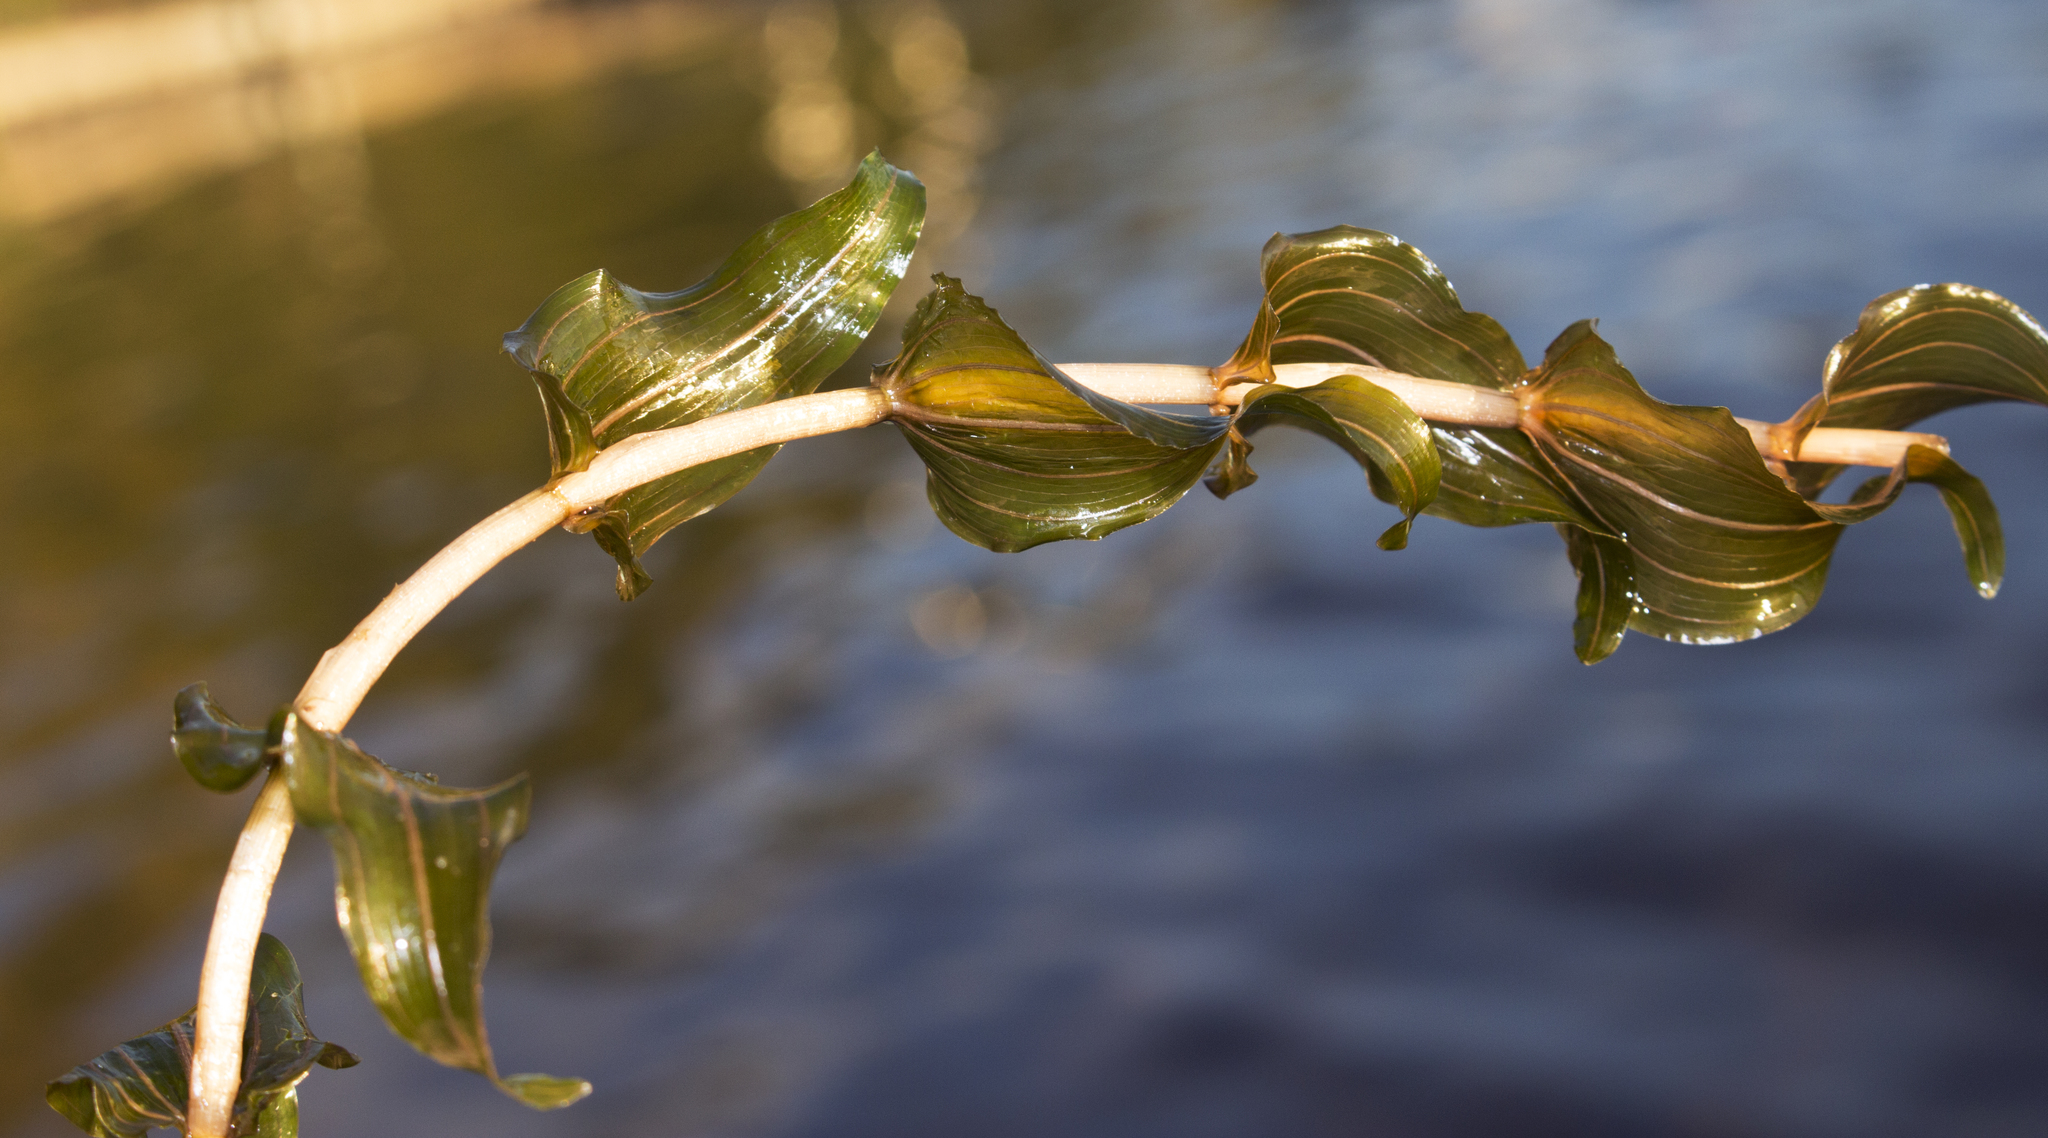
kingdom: Plantae
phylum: Tracheophyta
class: Liliopsida
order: Alismatales
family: Potamogetonaceae
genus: Potamogeton
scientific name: Potamogeton richardsonii
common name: Richardson's pondweed
